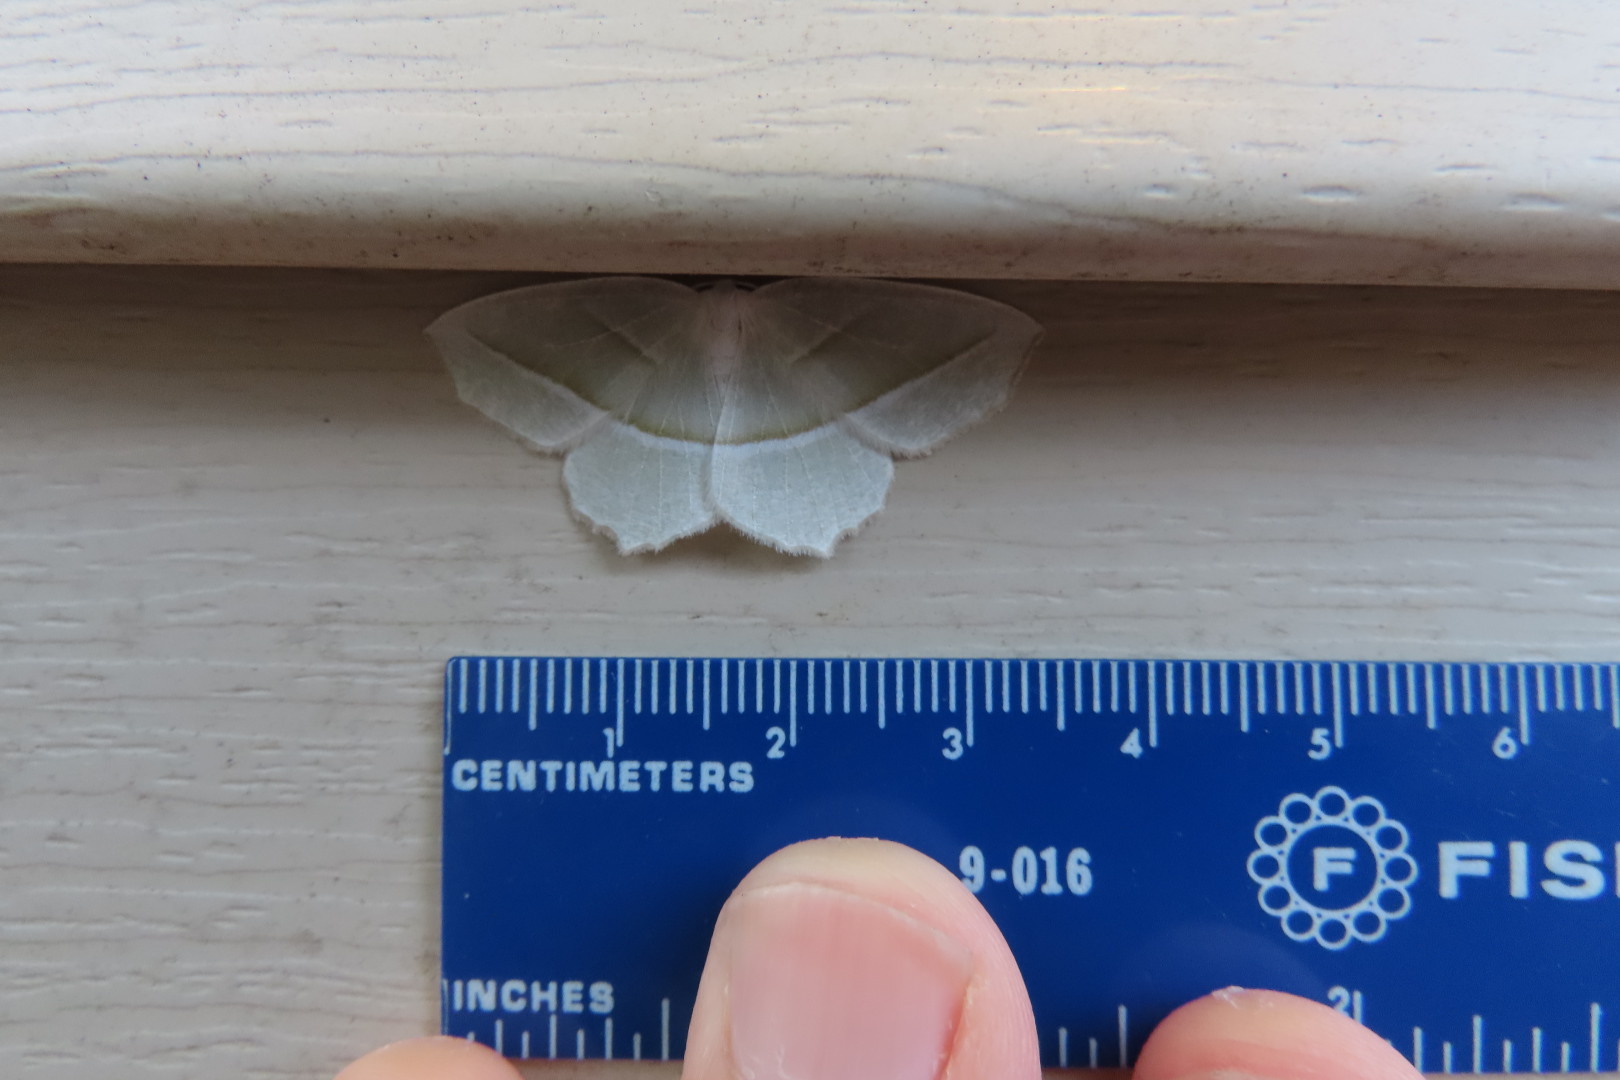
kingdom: Animalia
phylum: Arthropoda
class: Insecta
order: Lepidoptera
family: Geometridae
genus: Campaea
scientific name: Campaea perlata
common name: Fringed looper
